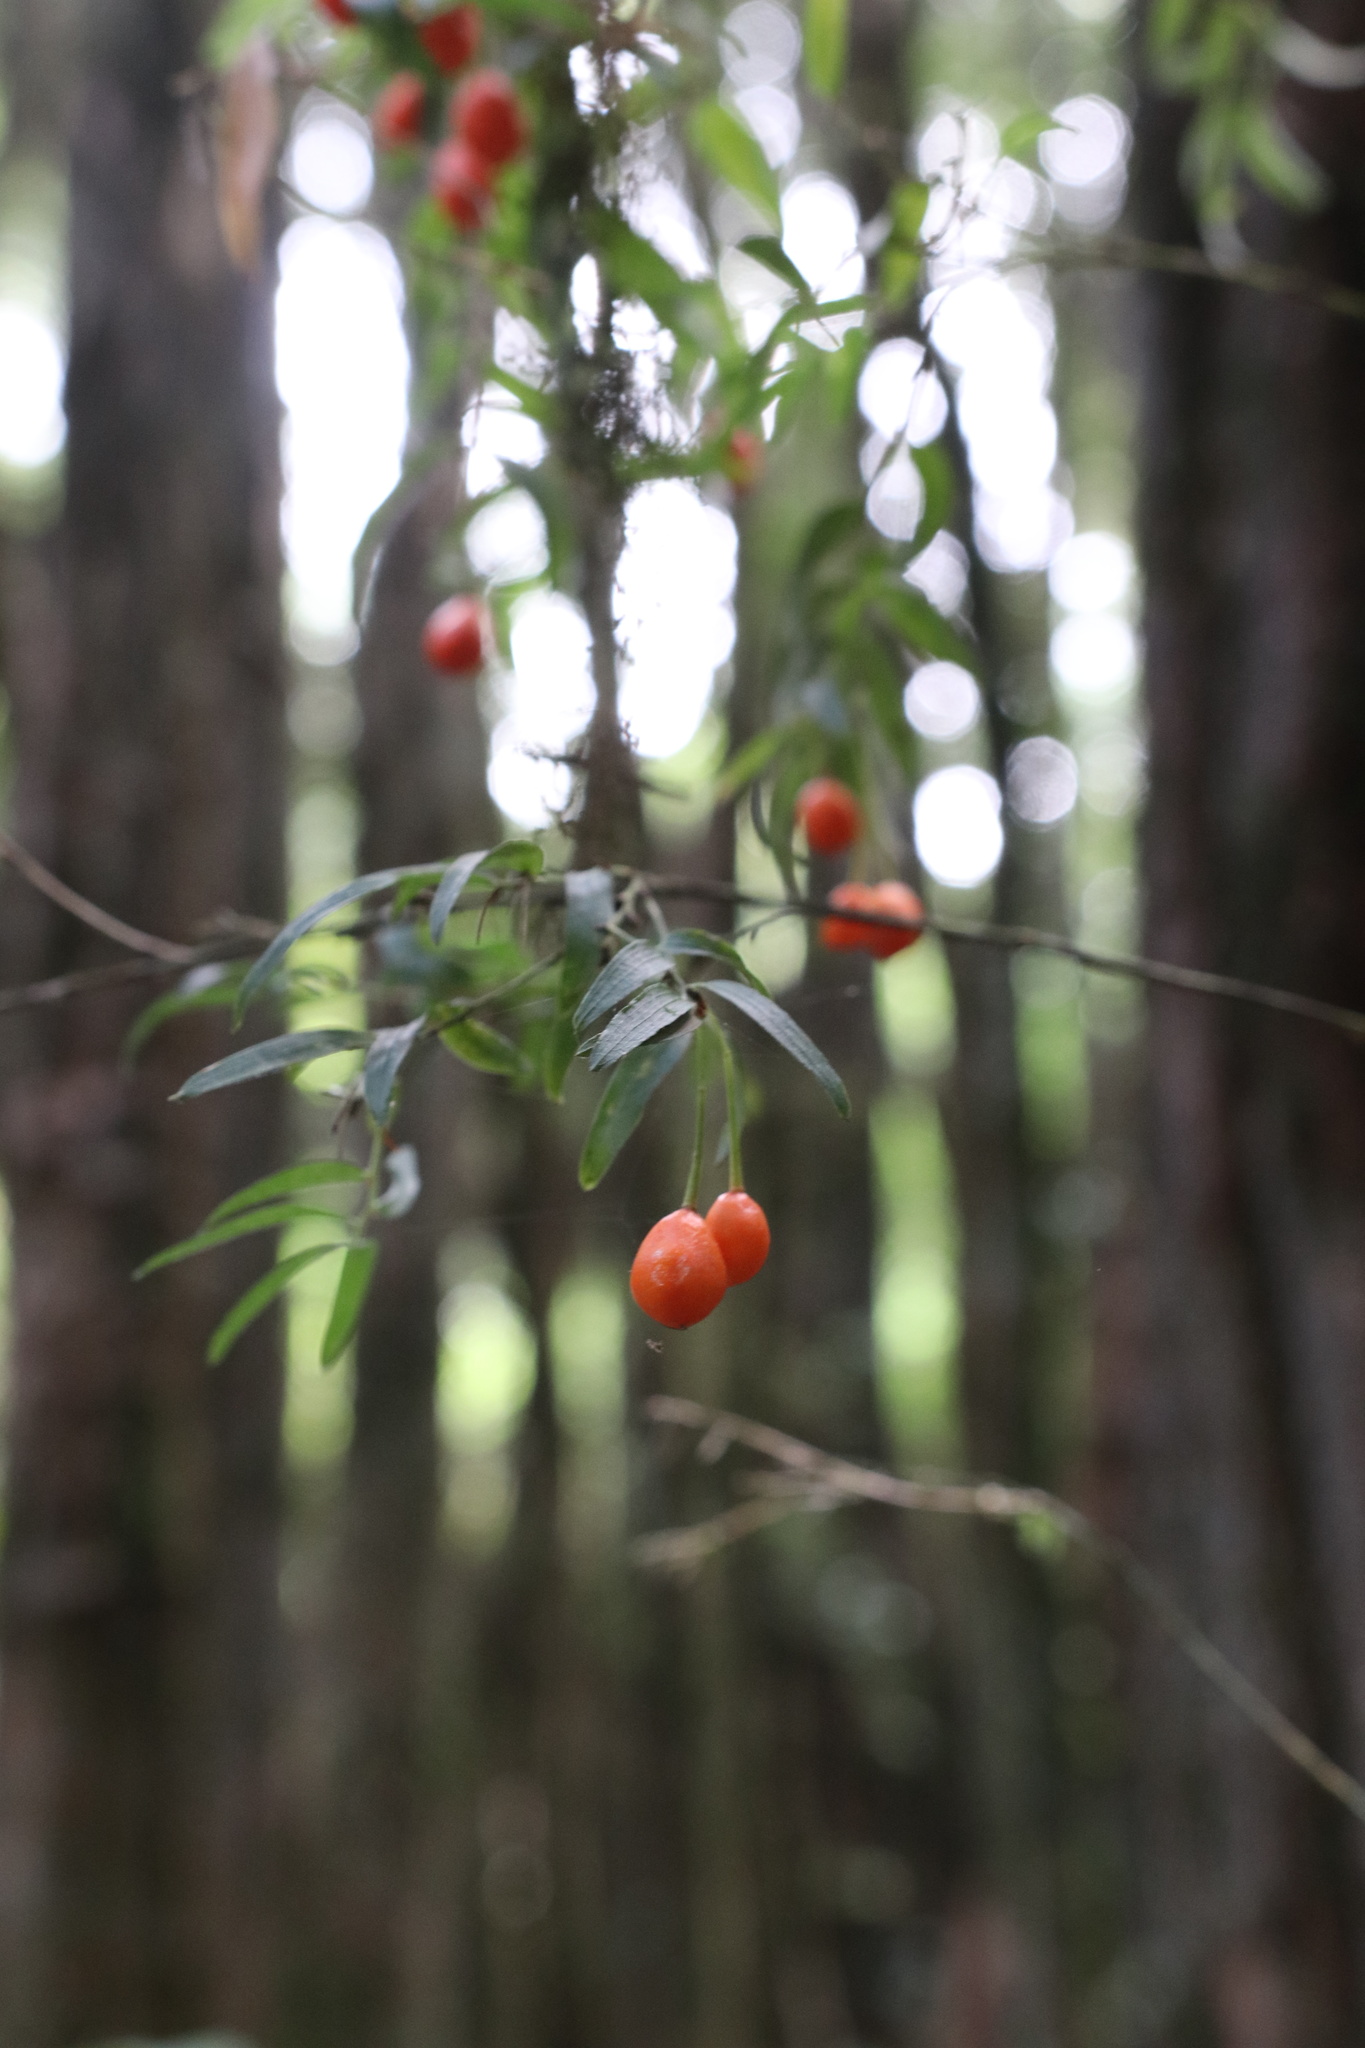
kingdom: Plantae
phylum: Tracheophyta
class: Liliopsida
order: Liliales
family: Alstroemeriaceae
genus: Luzuriaga
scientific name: Luzuriaga radicans
